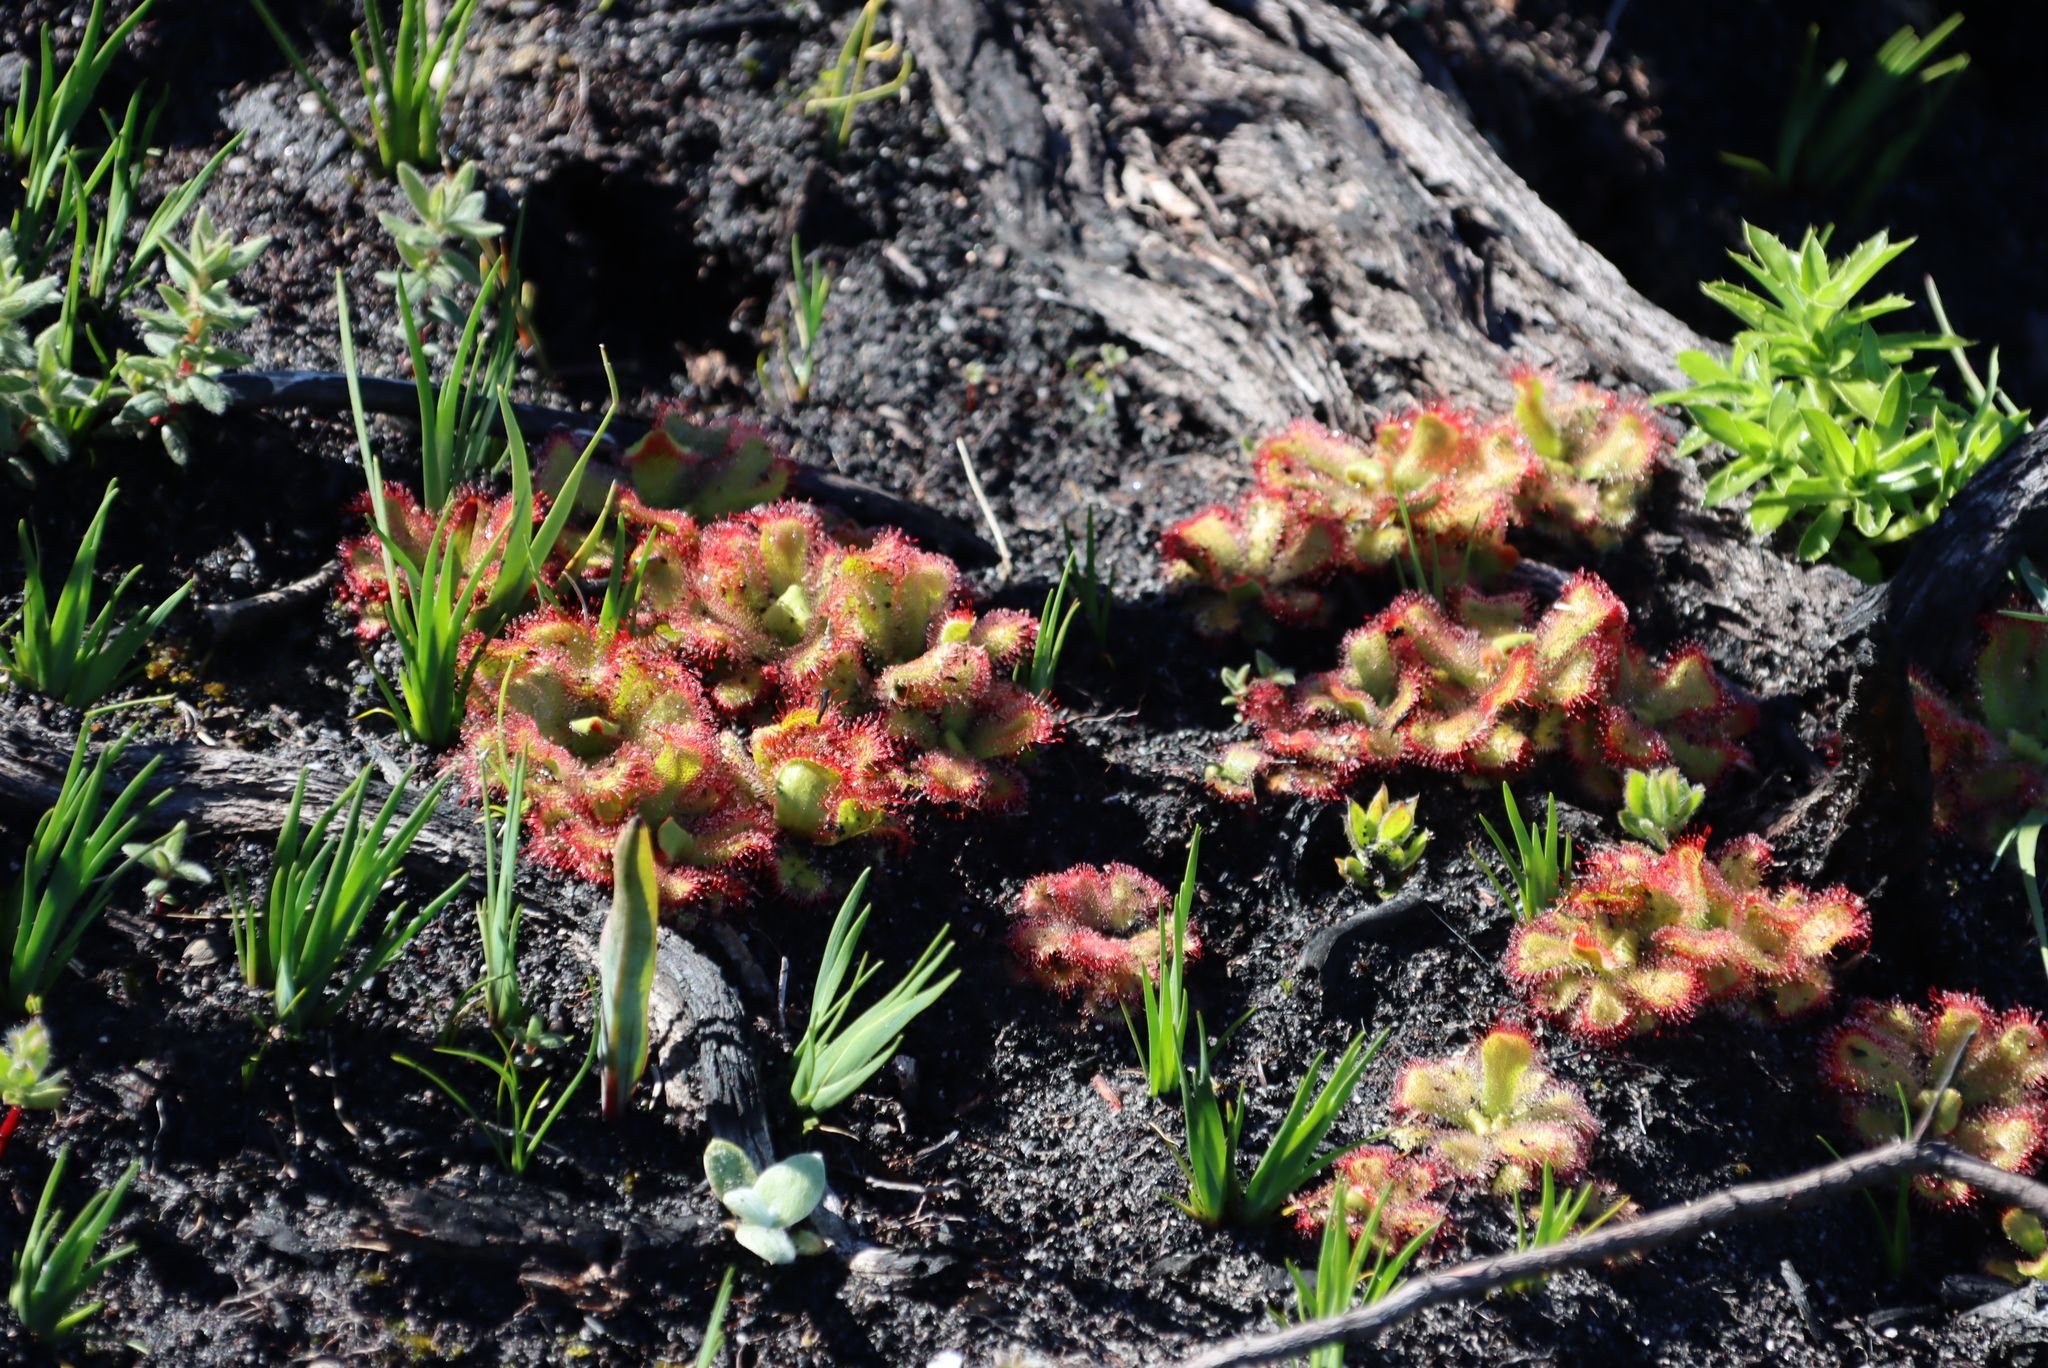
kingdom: Plantae
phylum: Tracheophyta
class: Magnoliopsida
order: Caryophyllales
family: Droseraceae
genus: Drosera
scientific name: Drosera cuneifolia
